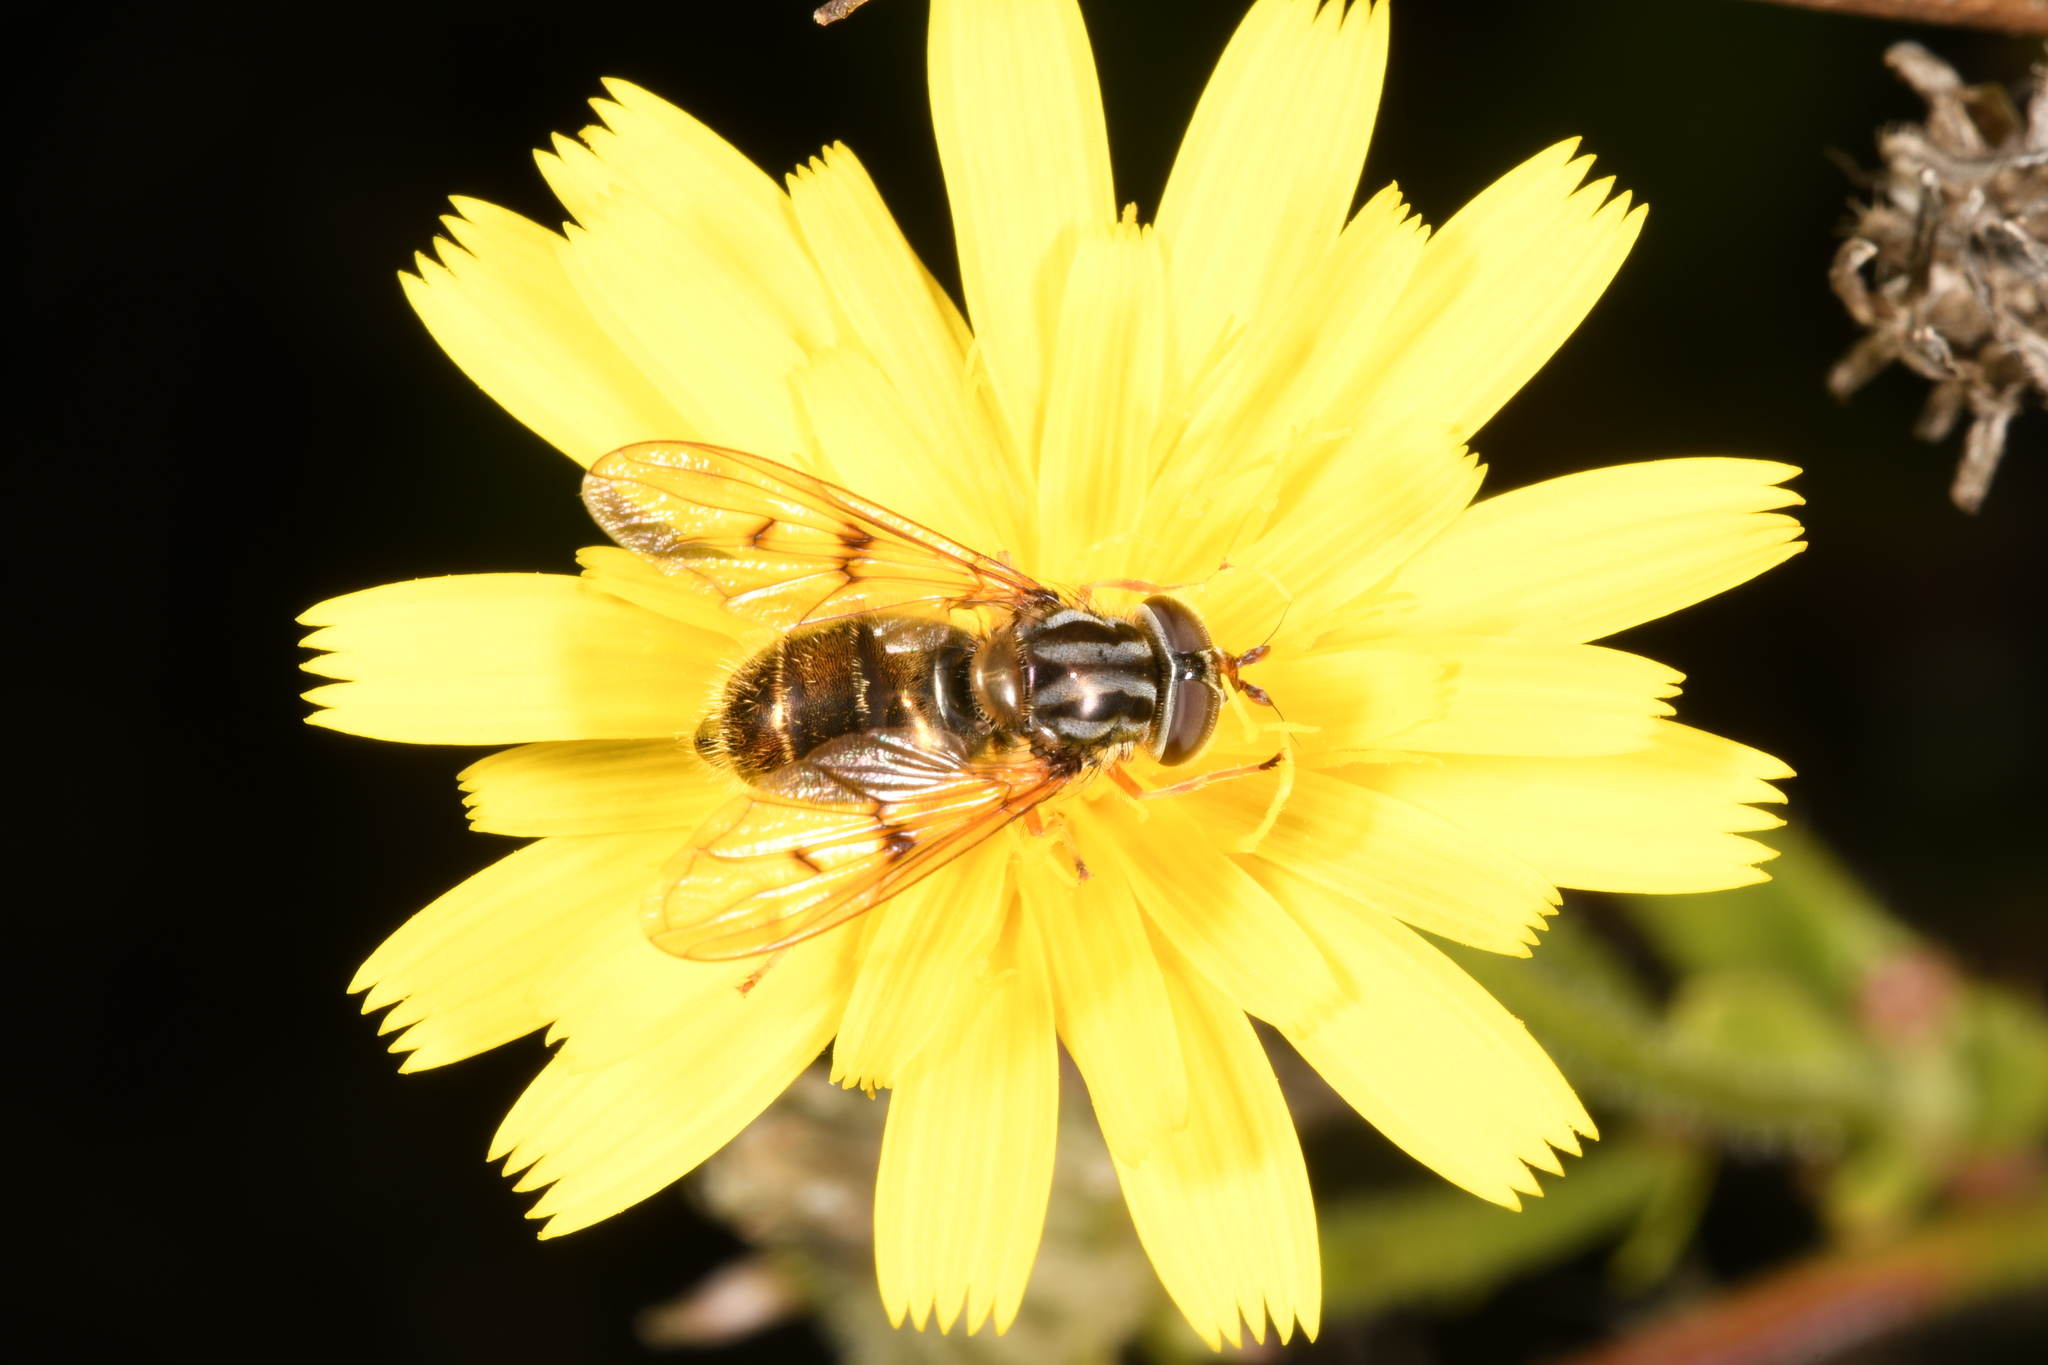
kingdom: Animalia
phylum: Arthropoda
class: Insecta
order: Diptera
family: Syrphidae
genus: Ferdinandea
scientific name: Ferdinandea cuprea
